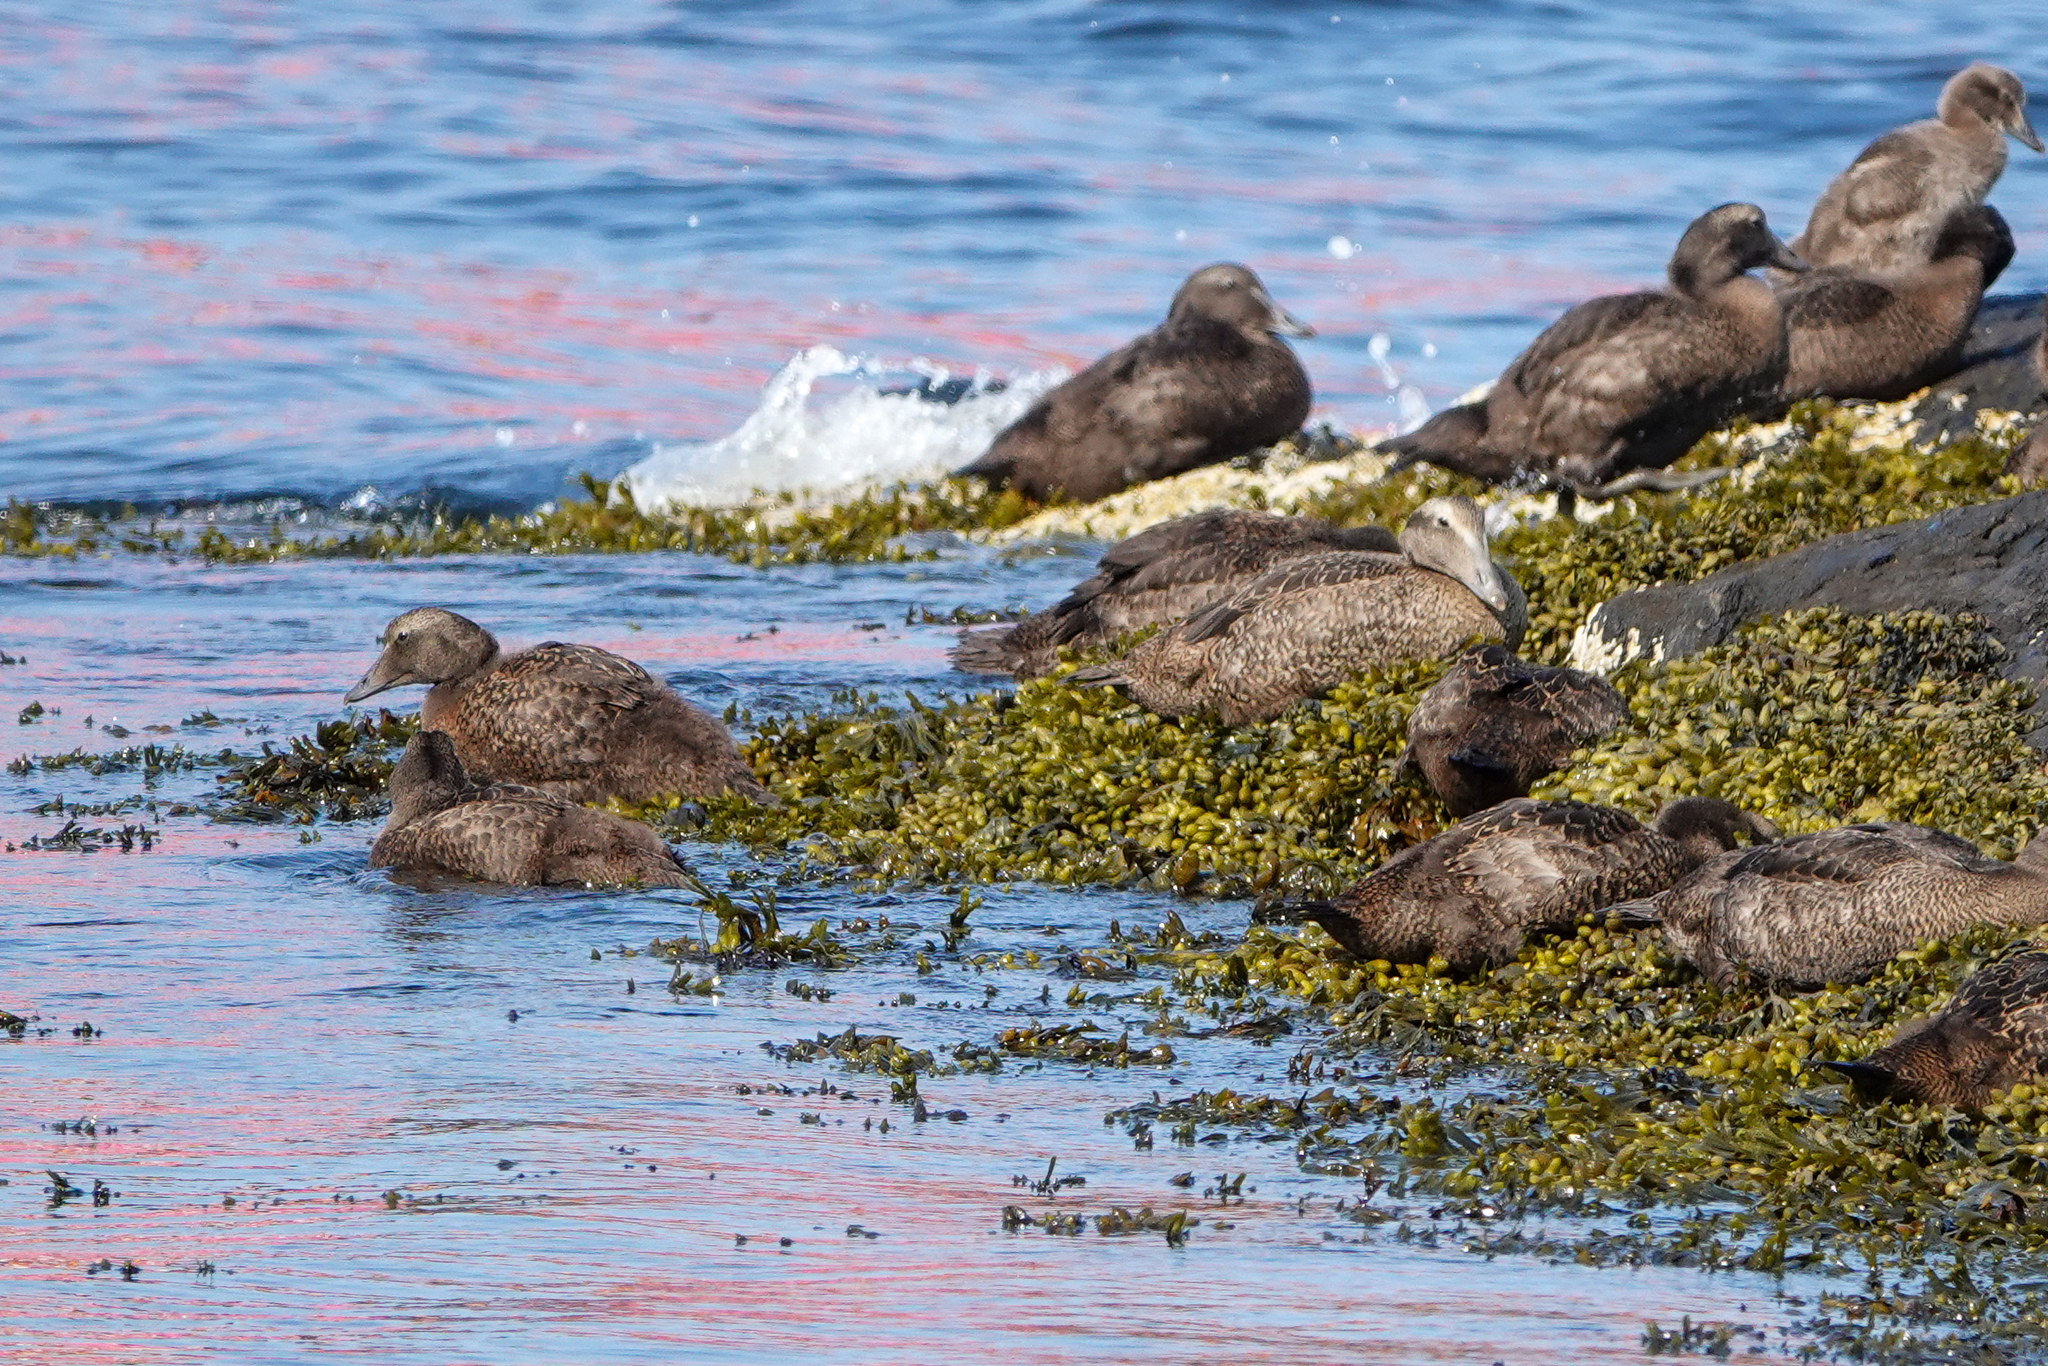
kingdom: Animalia
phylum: Chordata
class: Aves
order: Anseriformes
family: Anatidae
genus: Somateria
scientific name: Somateria mollissima
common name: Common eider
